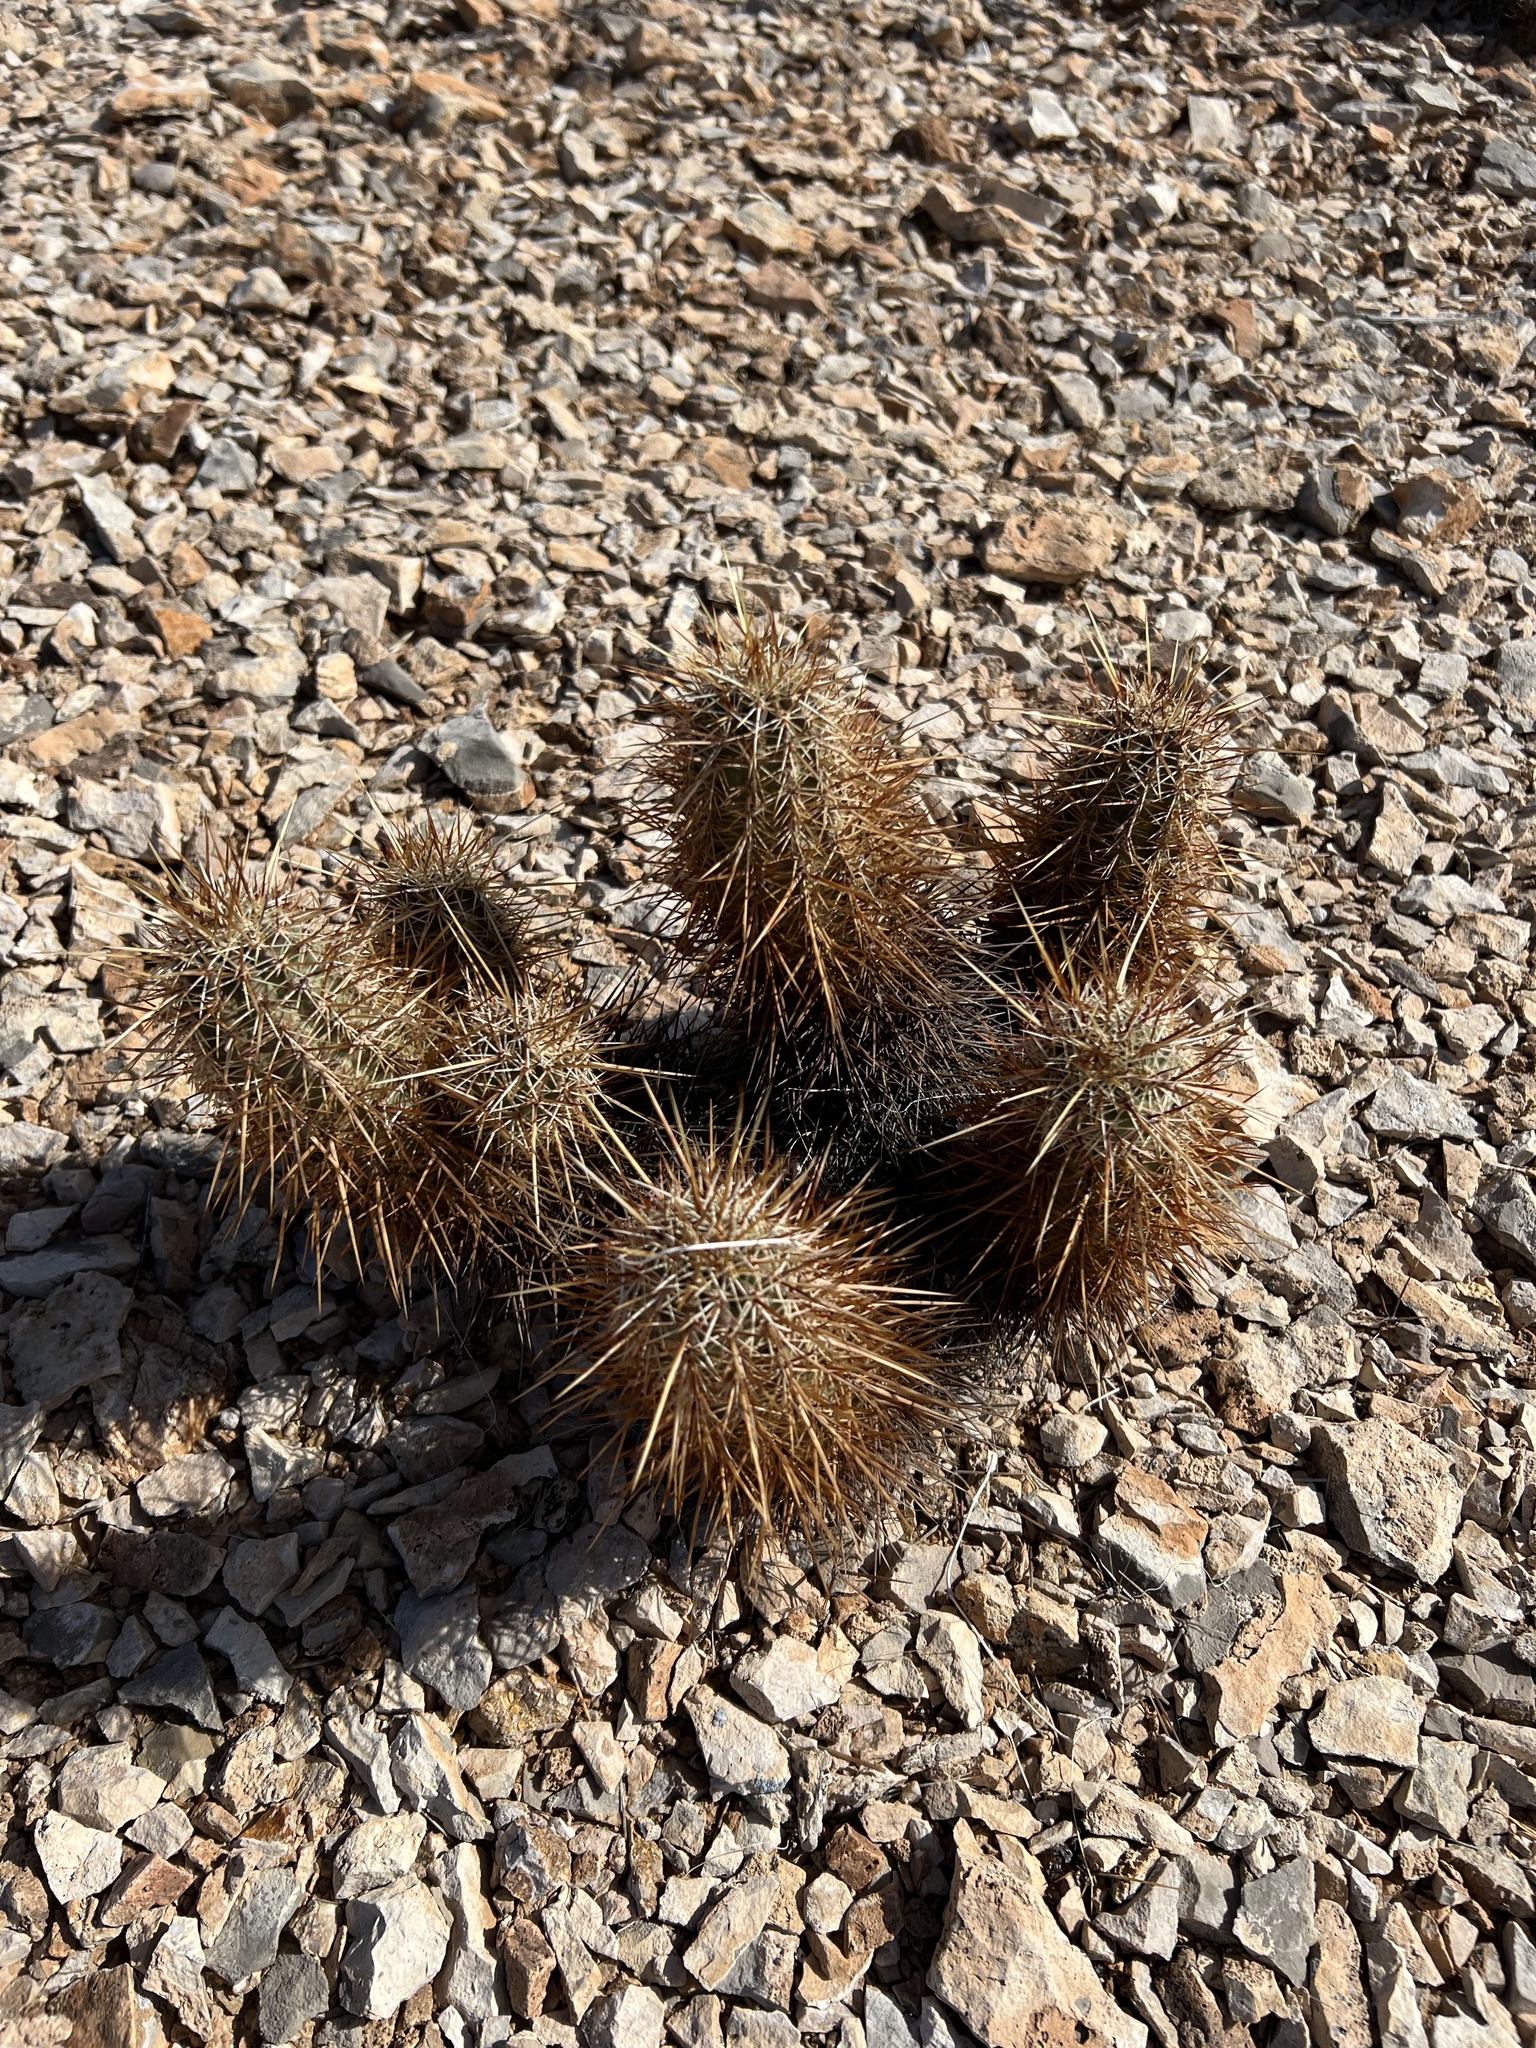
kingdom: Plantae
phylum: Tracheophyta
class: Magnoliopsida
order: Caryophyllales
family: Cactaceae
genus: Echinocereus
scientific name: Echinocereus engelmannii
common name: Engelmann's hedgehog cactus
